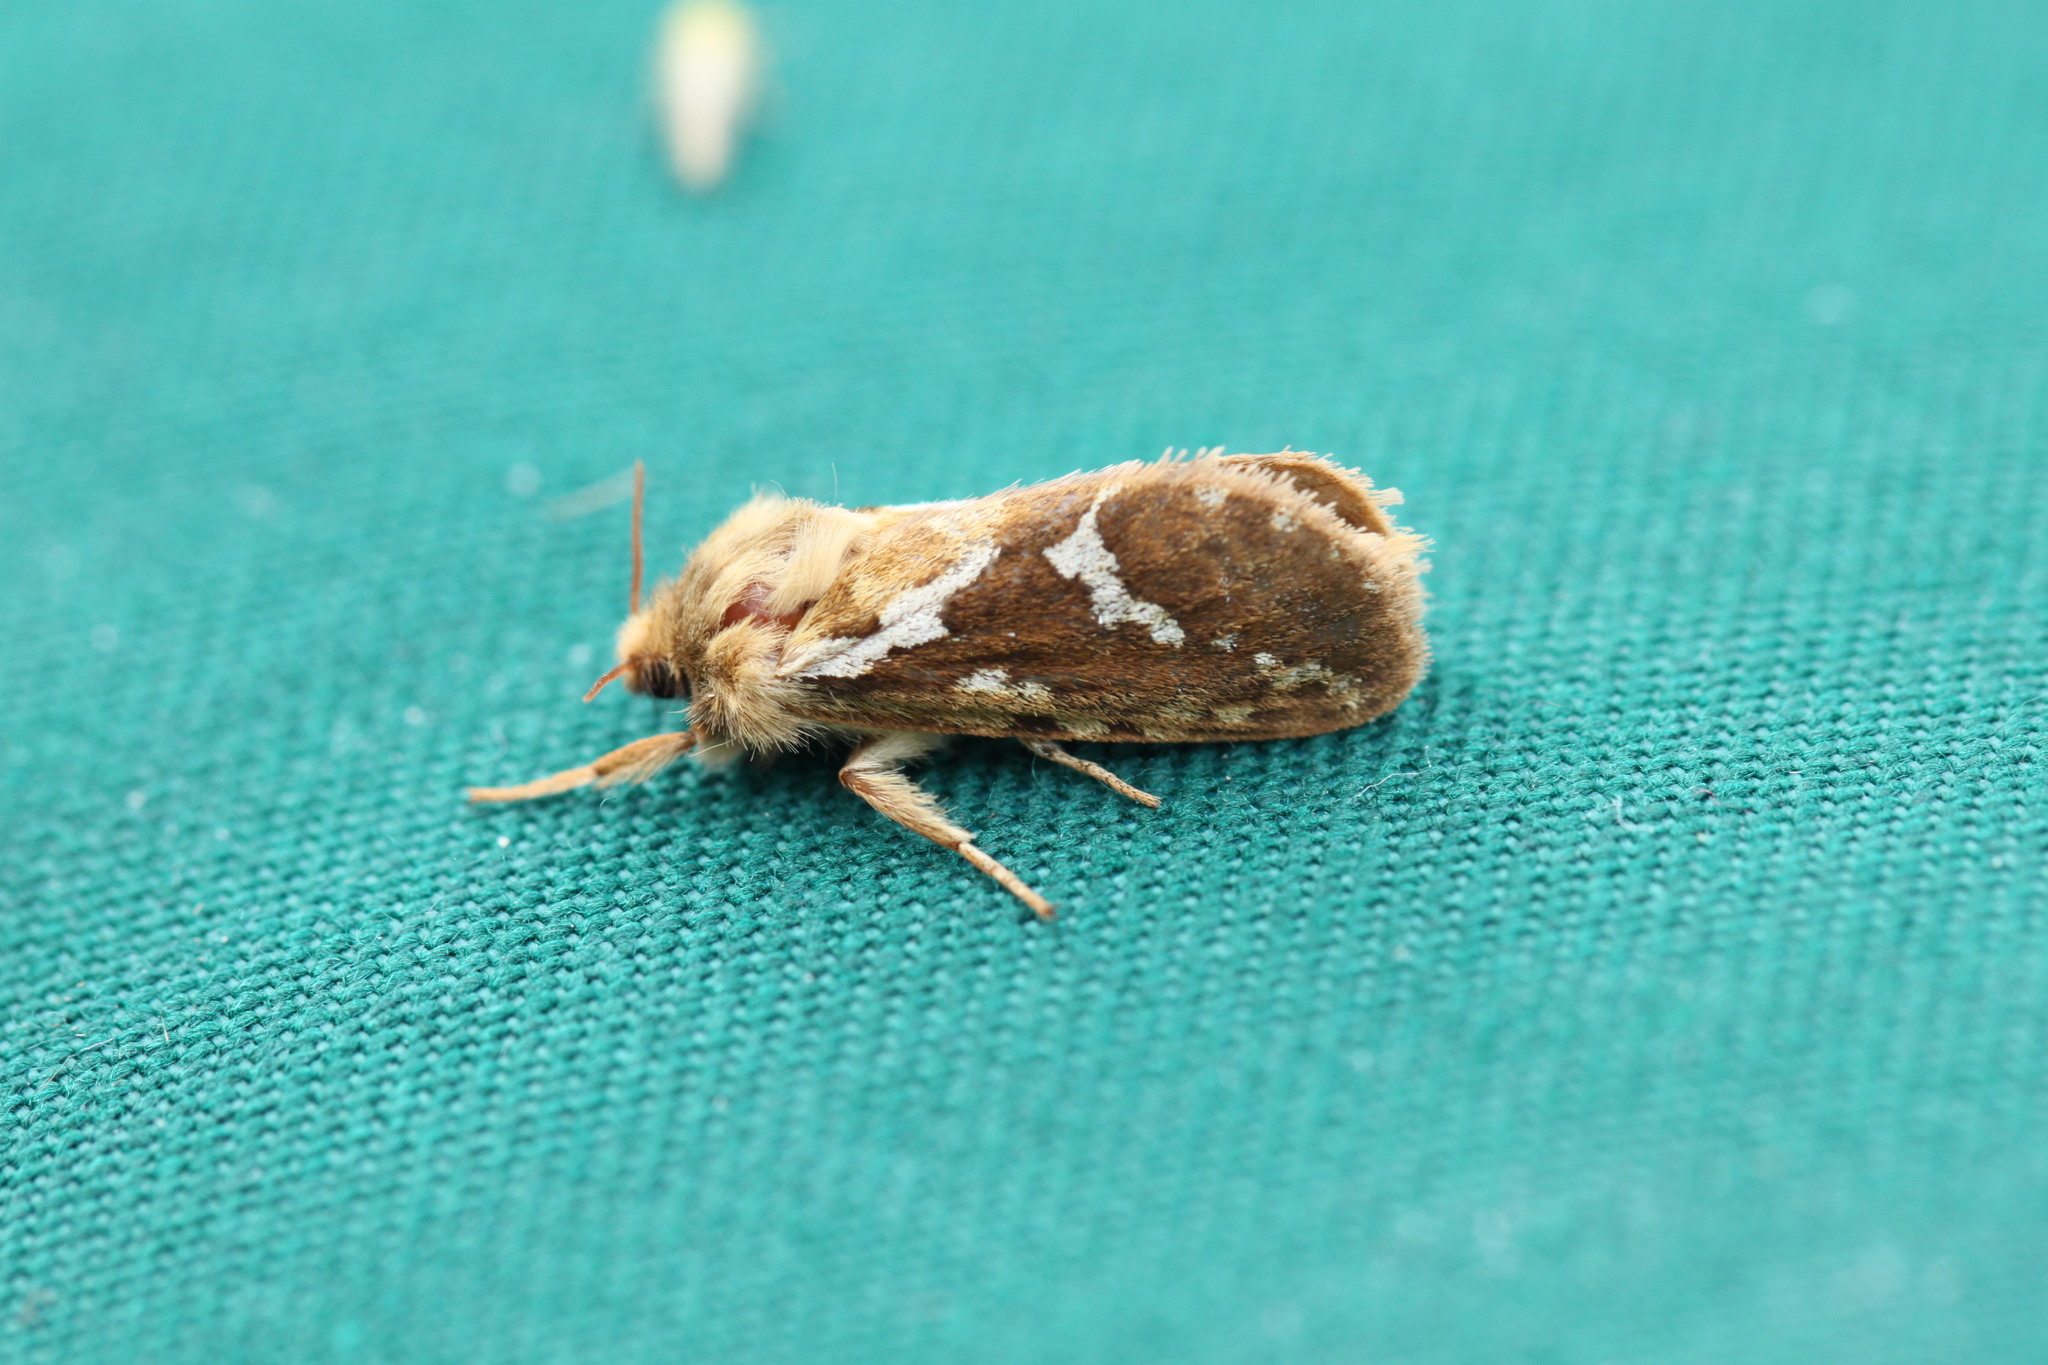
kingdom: Animalia
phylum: Arthropoda
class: Insecta
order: Lepidoptera
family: Hepialidae
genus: Korscheltellus
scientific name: Korscheltellus lupulina
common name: Common swift
